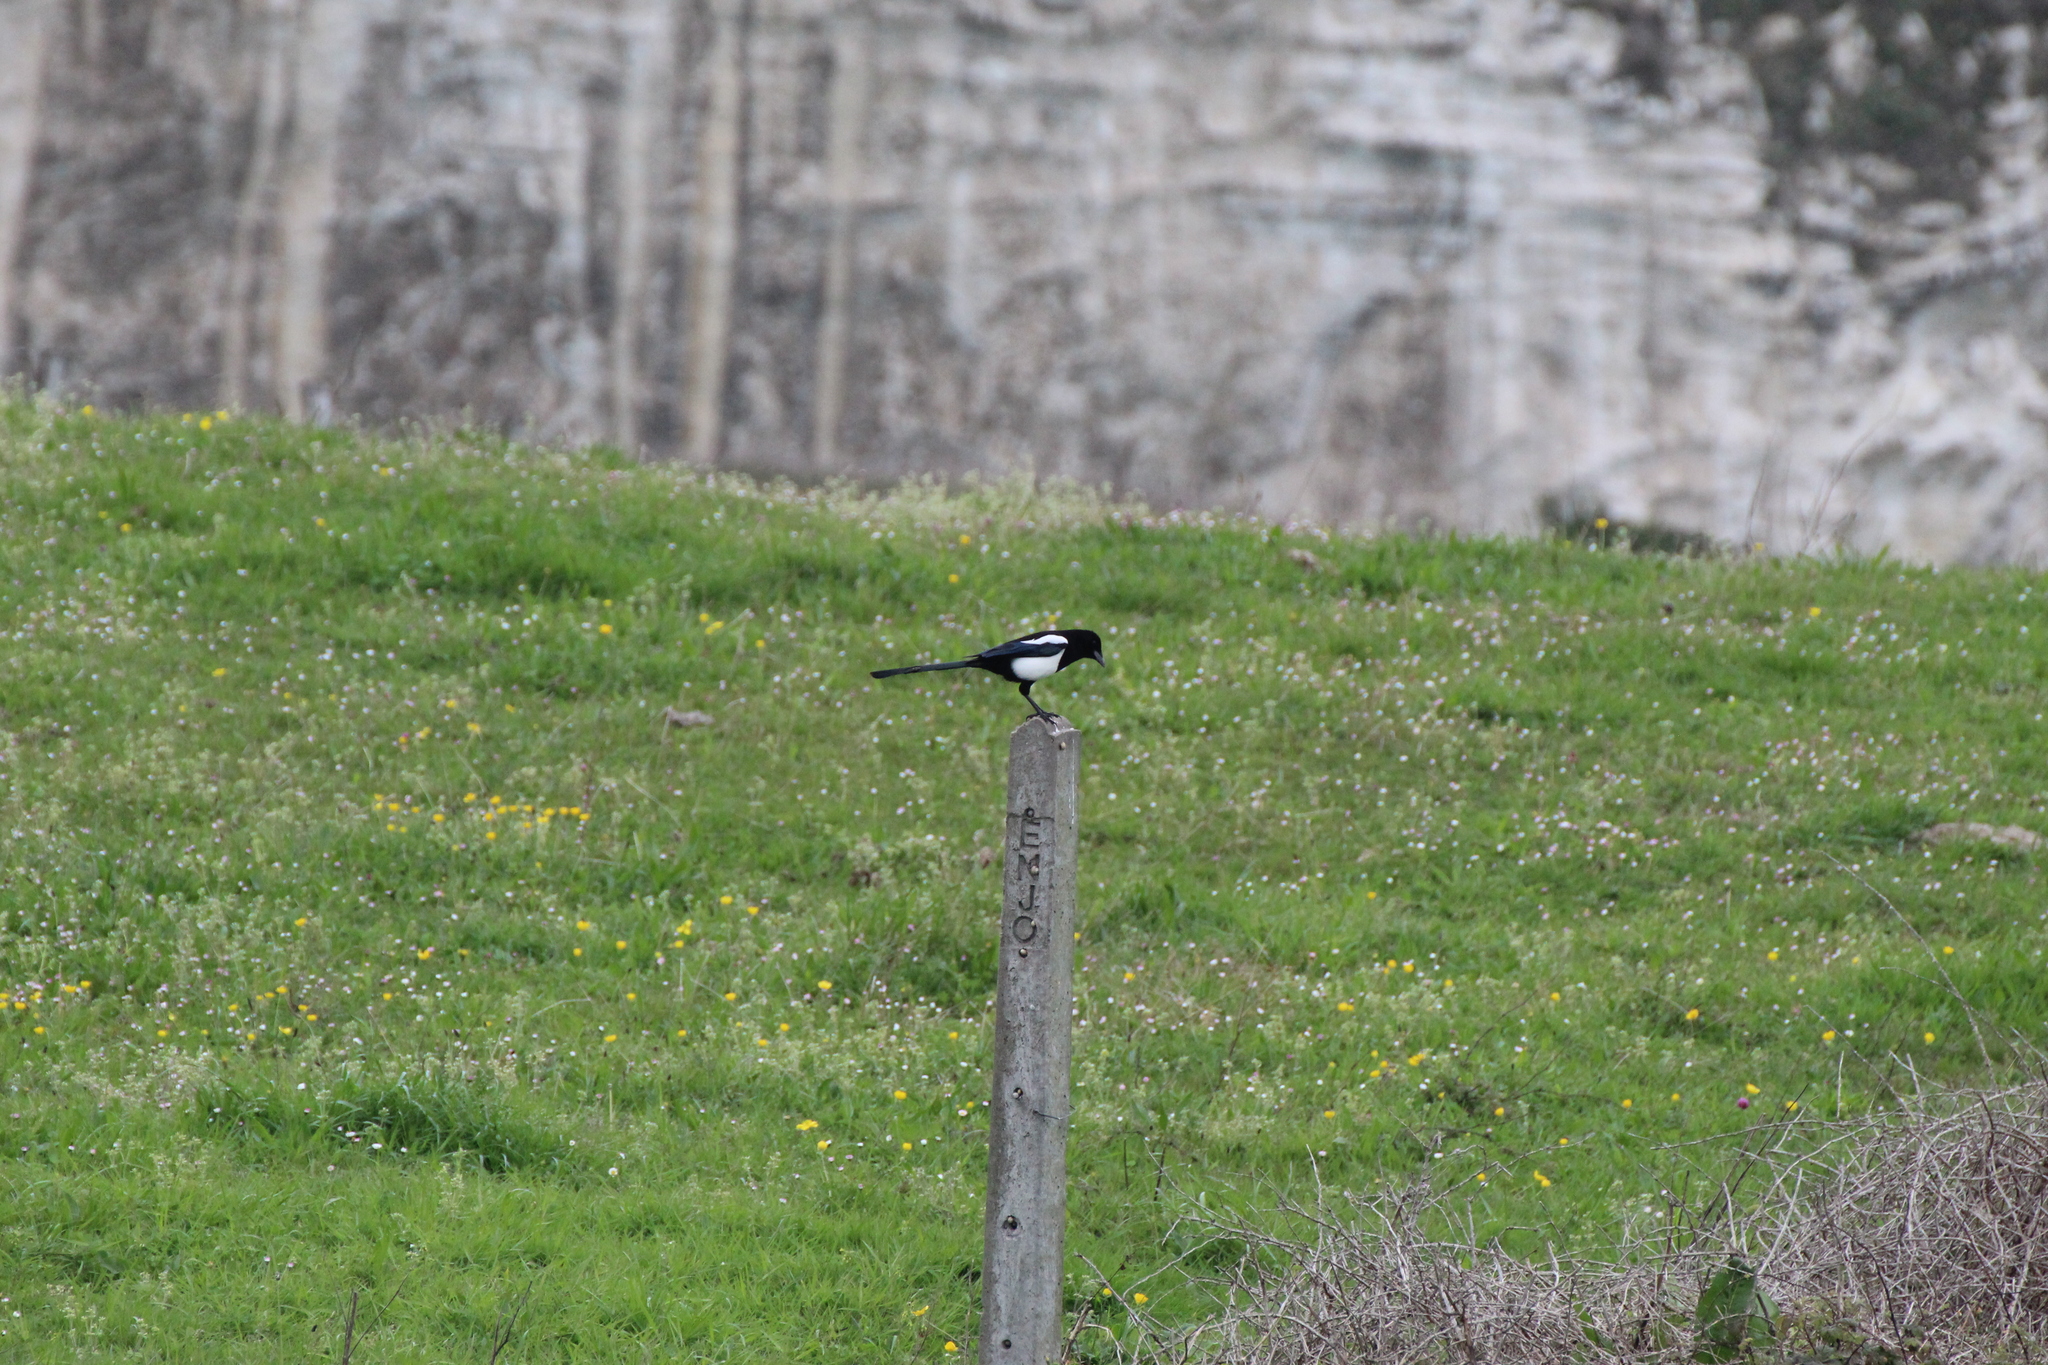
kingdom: Animalia
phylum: Chordata
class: Aves
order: Passeriformes
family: Corvidae
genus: Pica
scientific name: Pica pica
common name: Eurasian magpie
